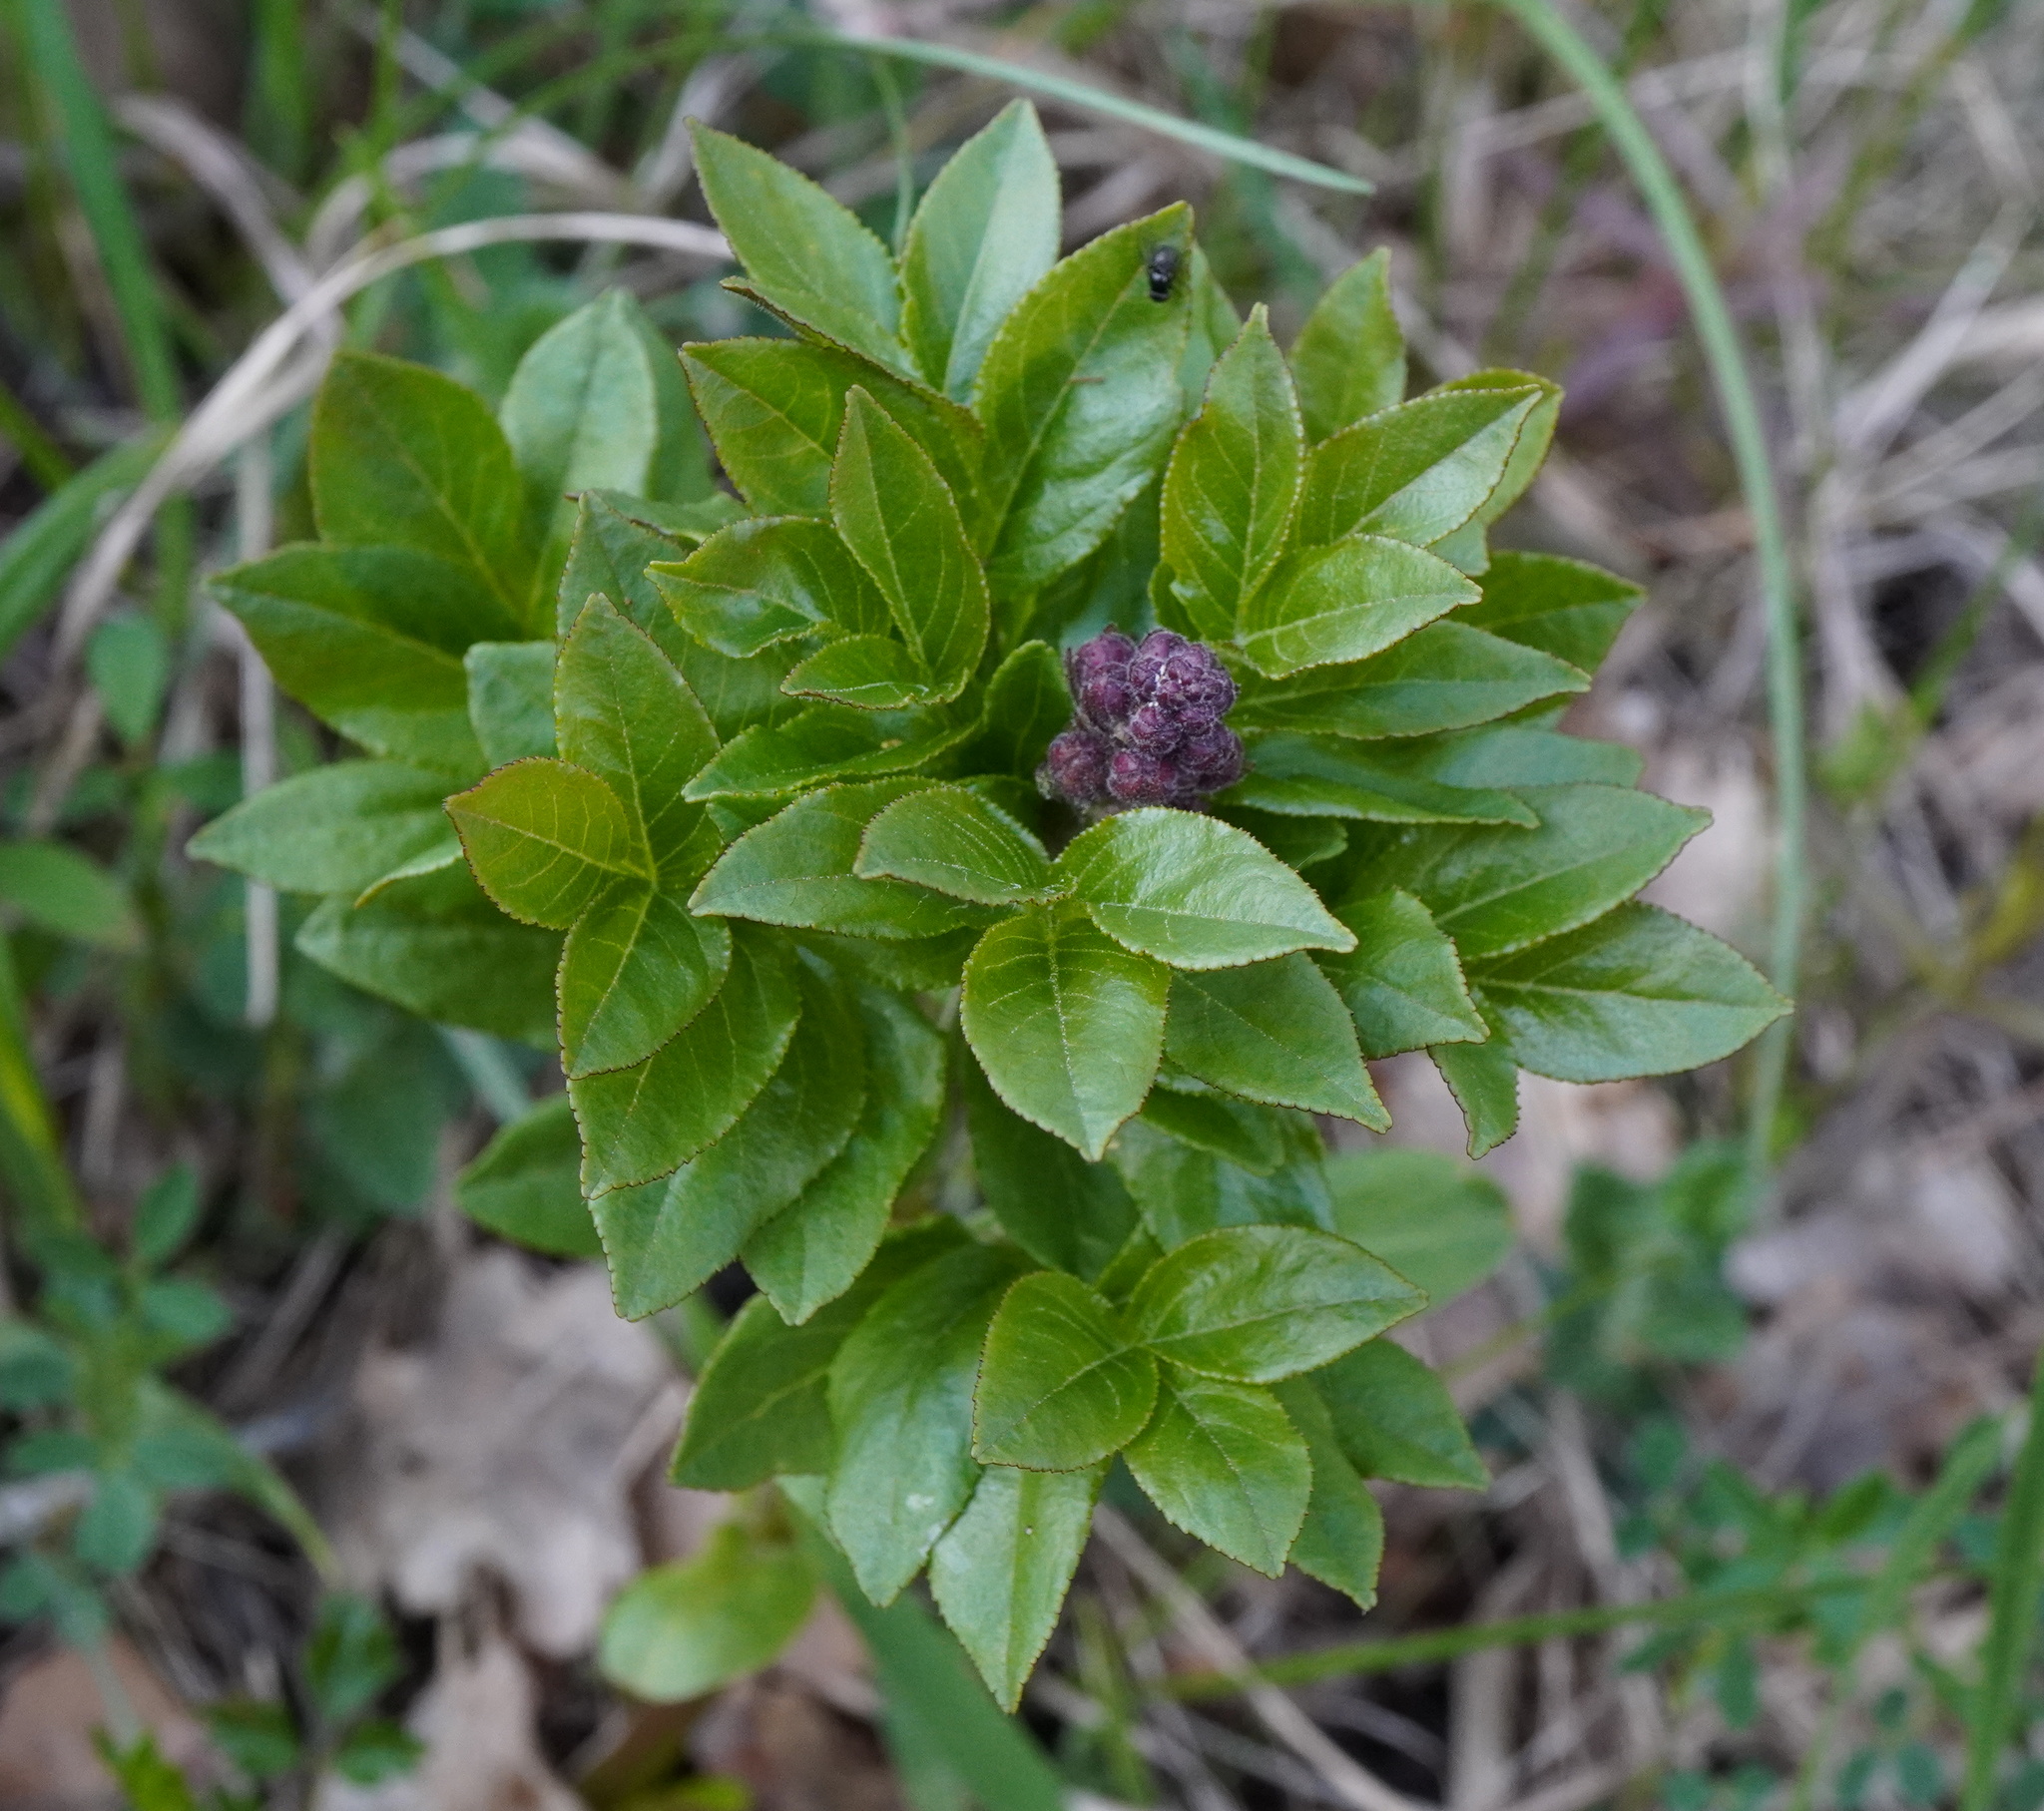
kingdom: Plantae
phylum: Tracheophyta
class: Magnoliopsida
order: Sapindales
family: Rutaceae
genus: Dictamnus
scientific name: Dictamnus albus
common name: Gasplant
